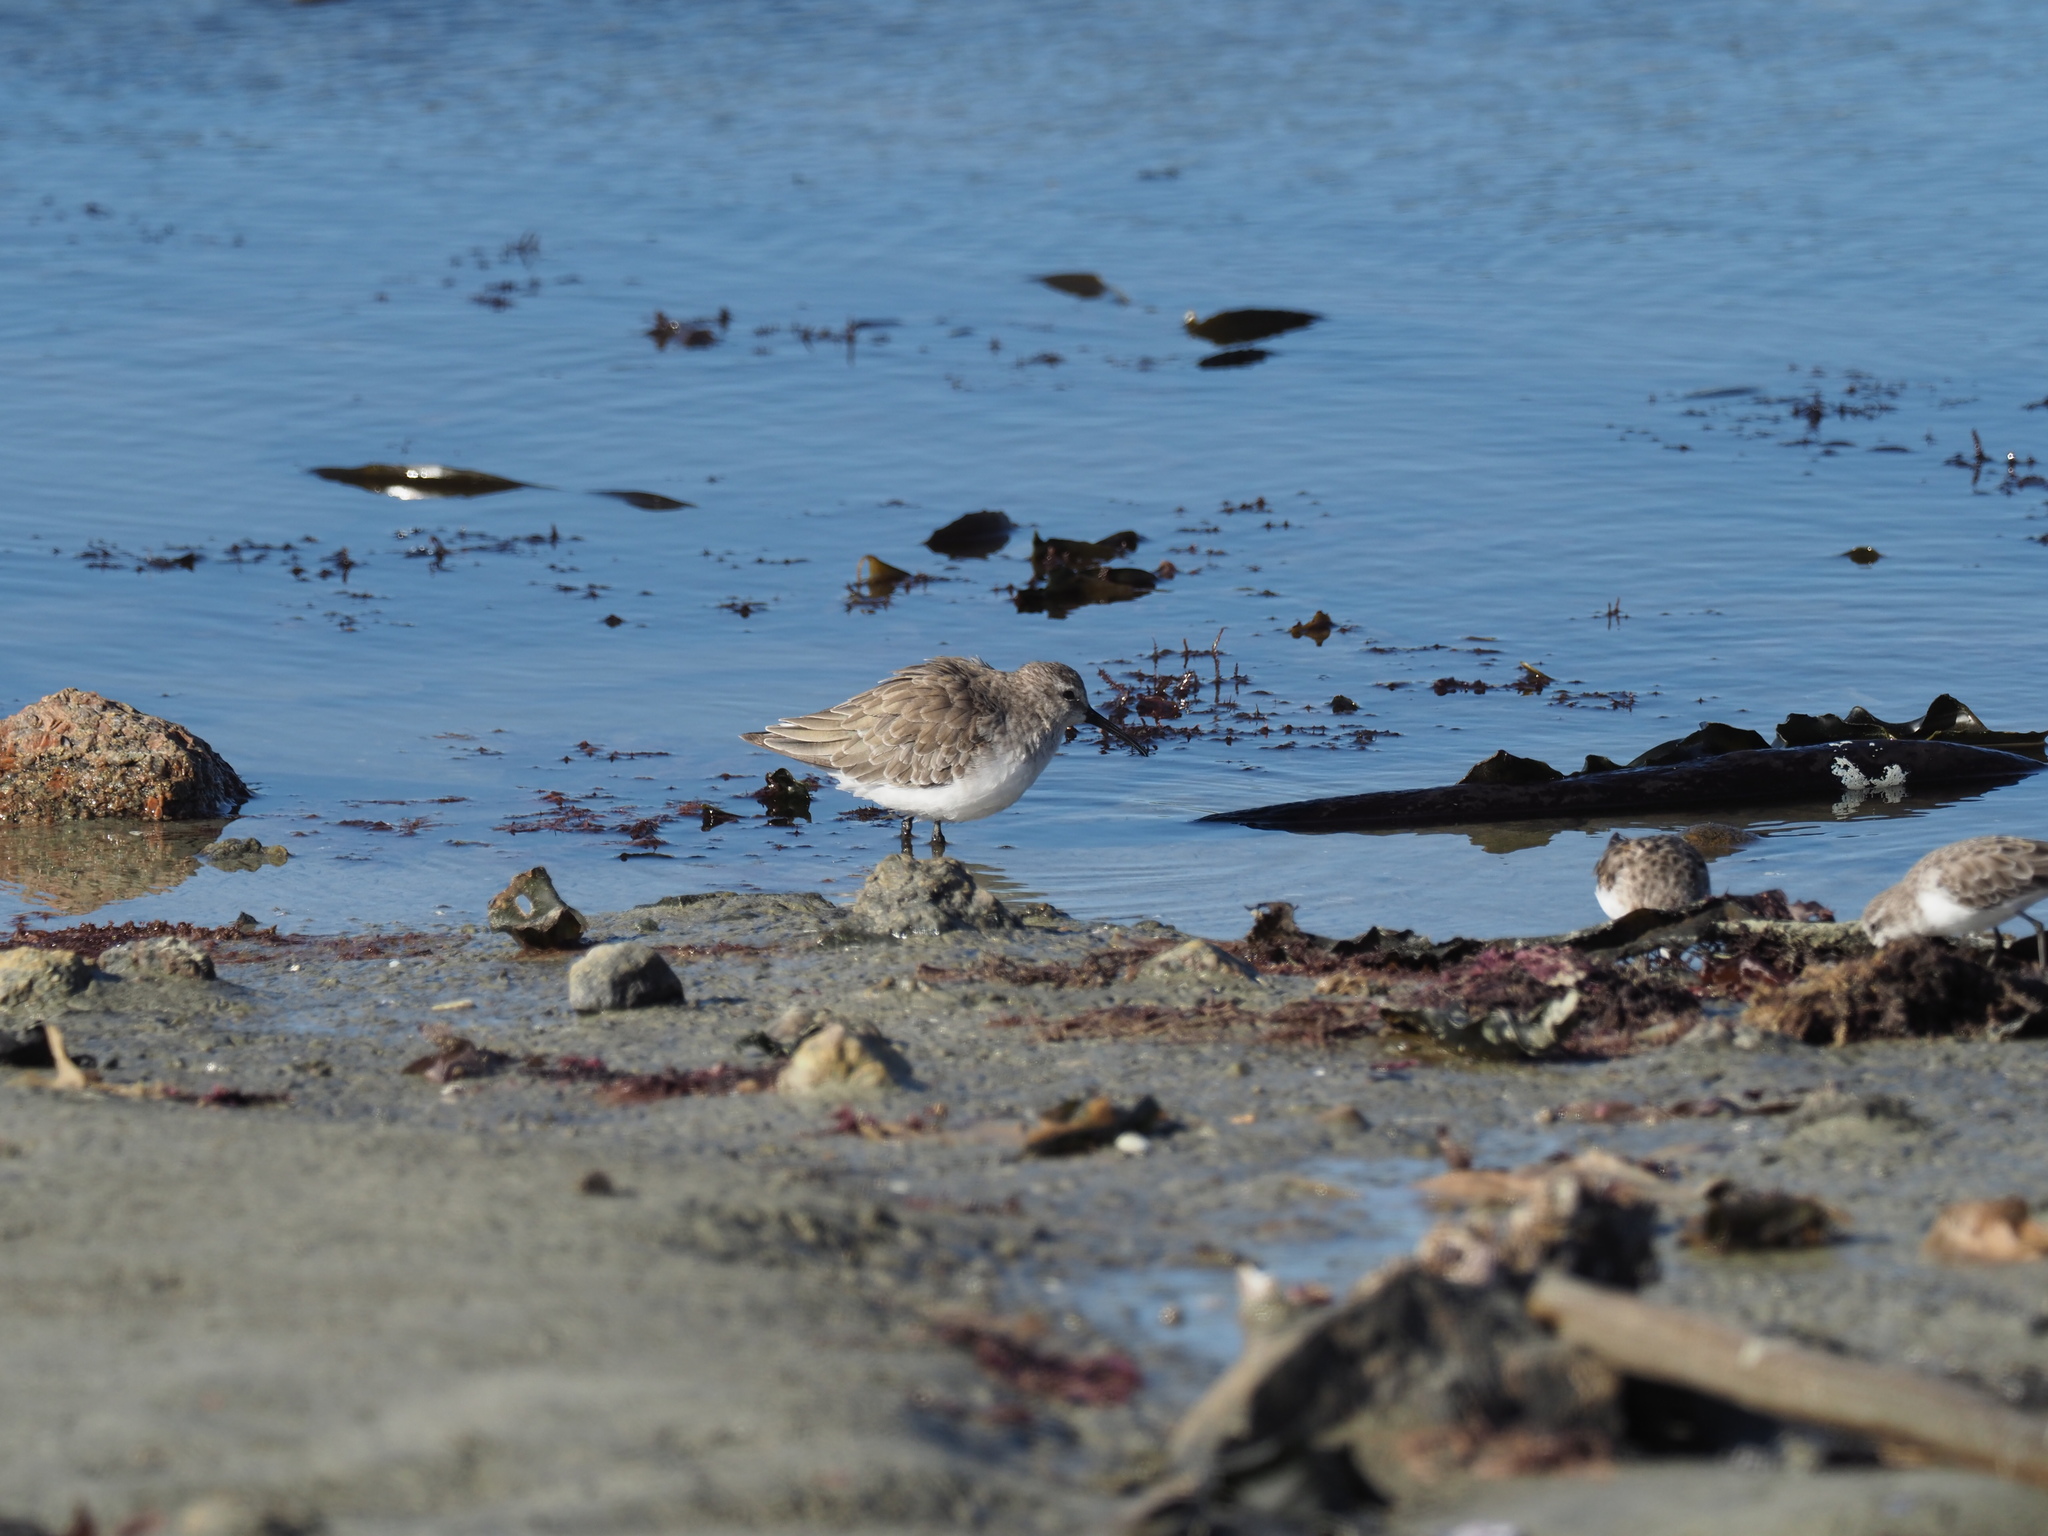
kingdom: Animalia
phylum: Chordata
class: Aves
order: Charadriiformes
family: Scolopacidae
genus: Calidris
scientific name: Calidris ferruginea
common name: Curlew sandpiper
